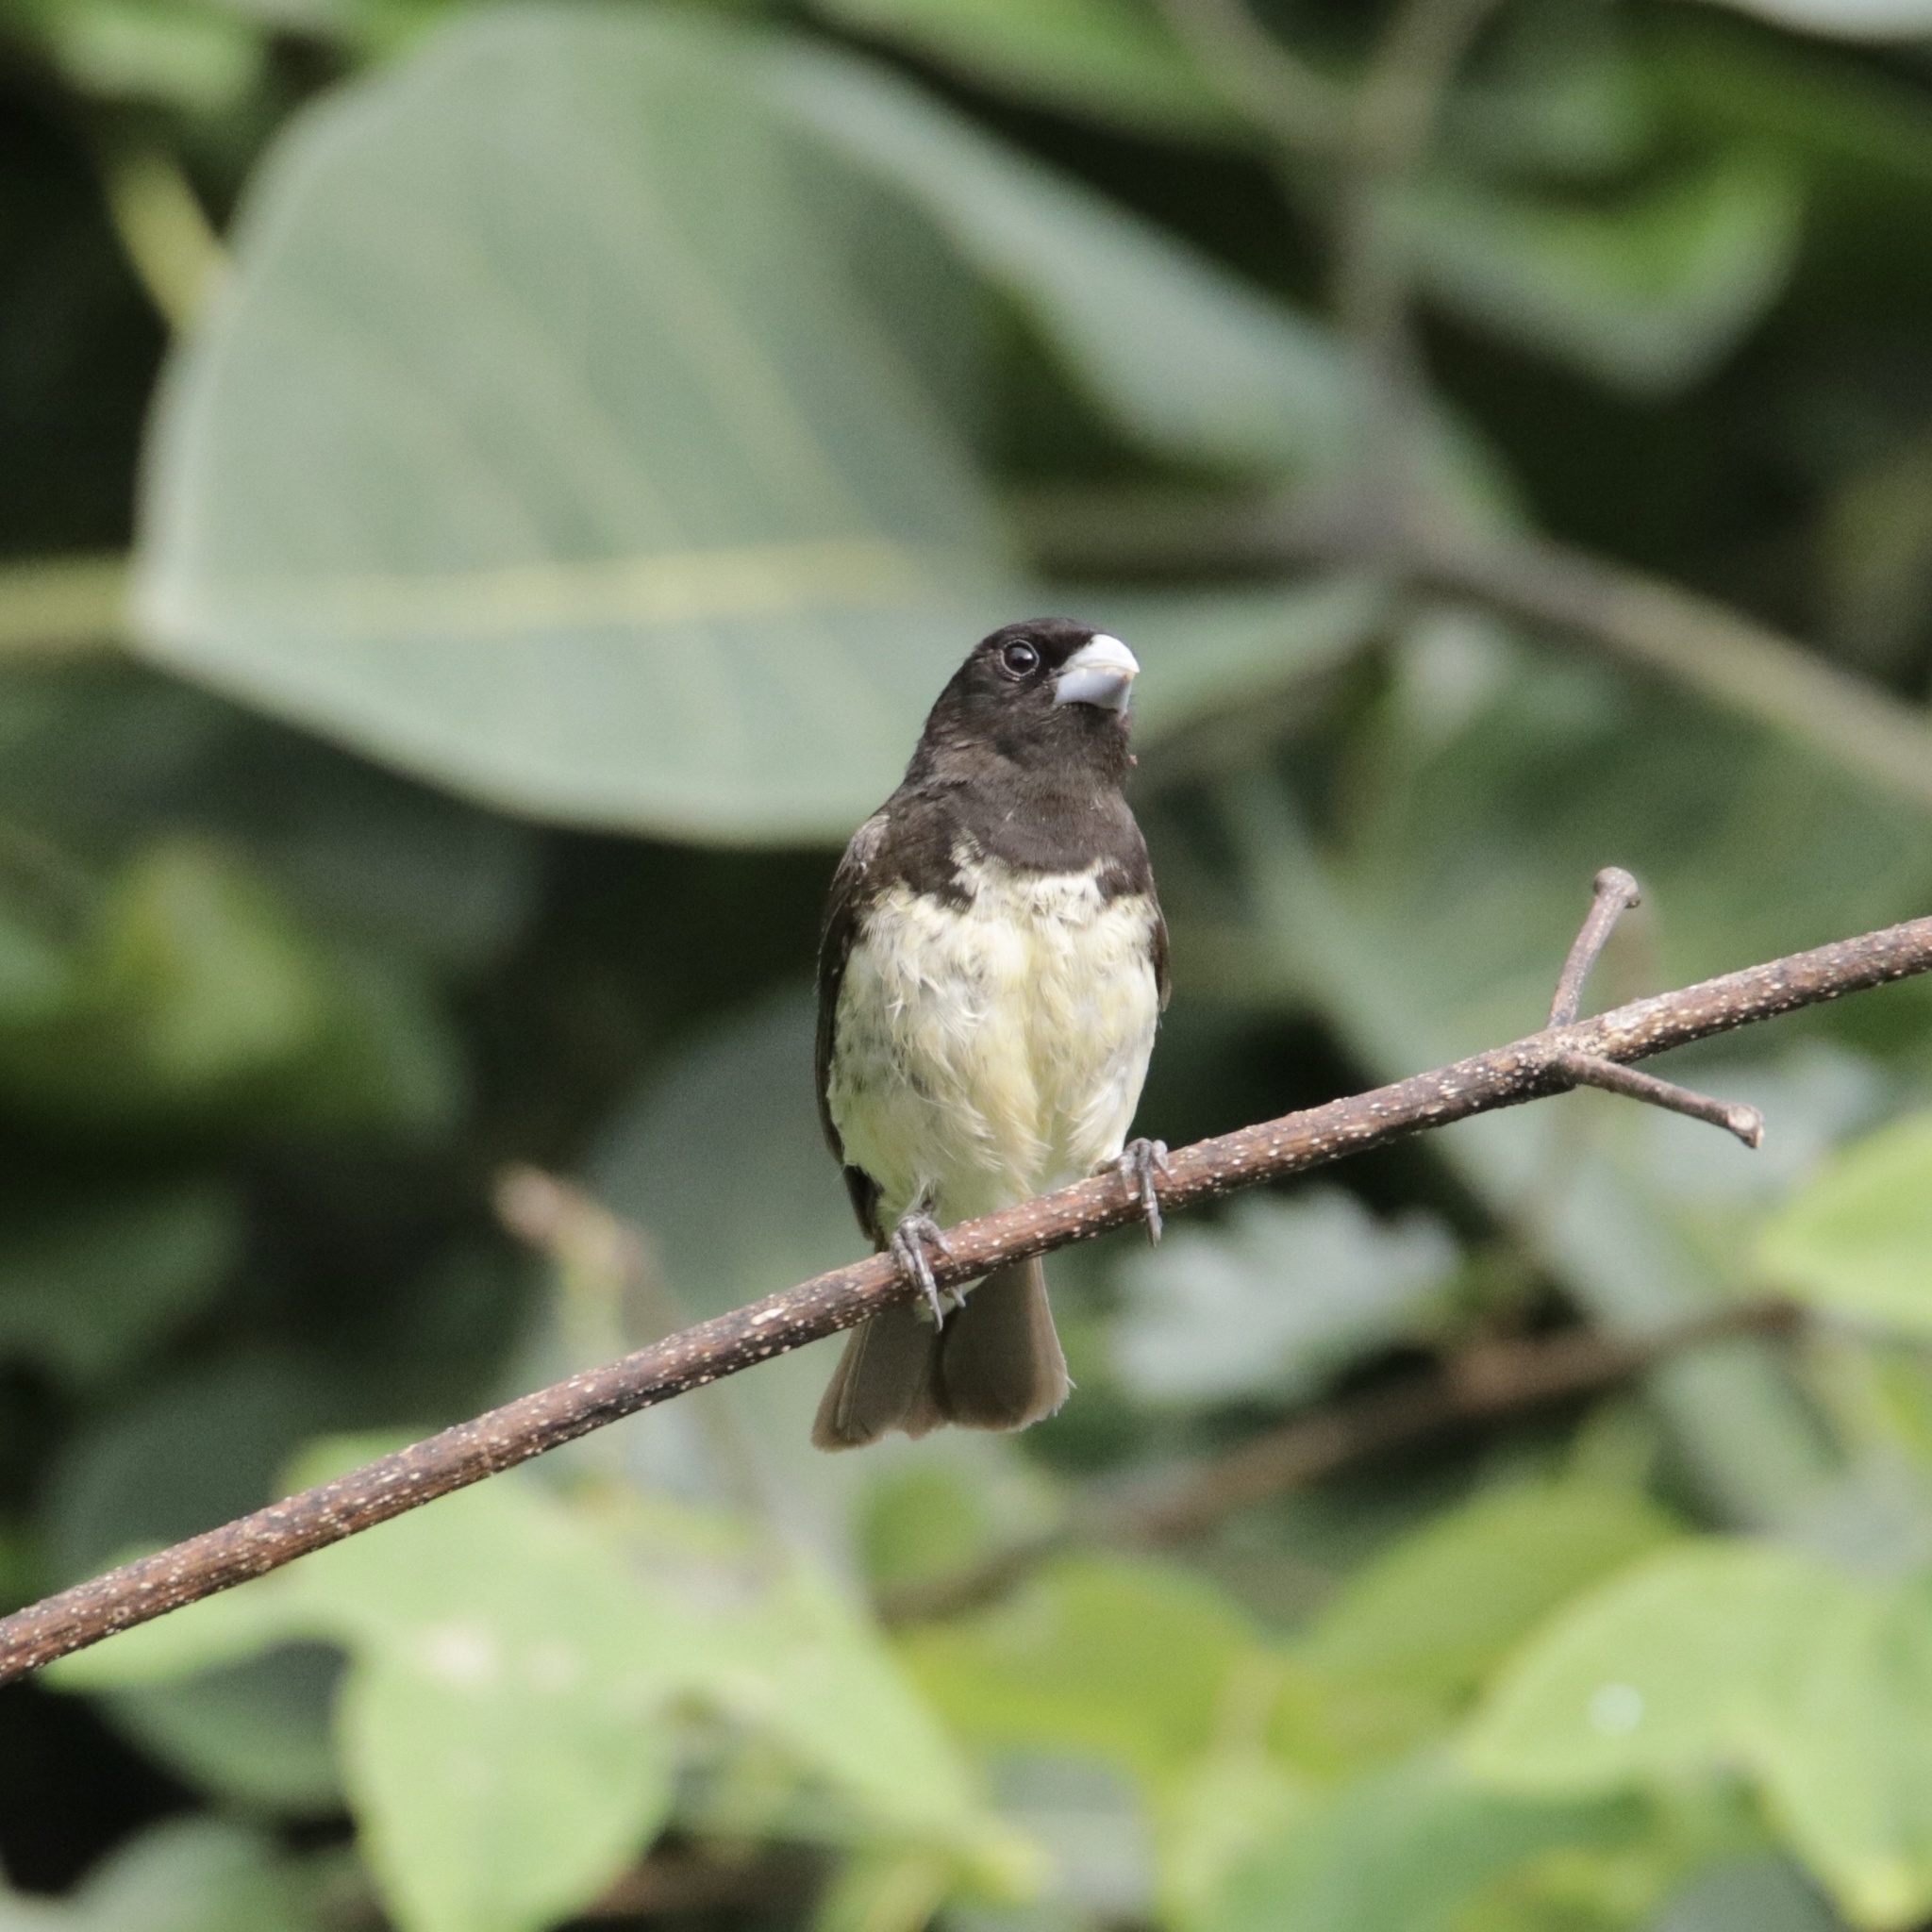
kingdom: Animalia
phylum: Chordata
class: Aves
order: Passeriformes
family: Thraupidae
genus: Sporophila
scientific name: Sporophila nigricollis
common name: Yellow-bellied seedeater
